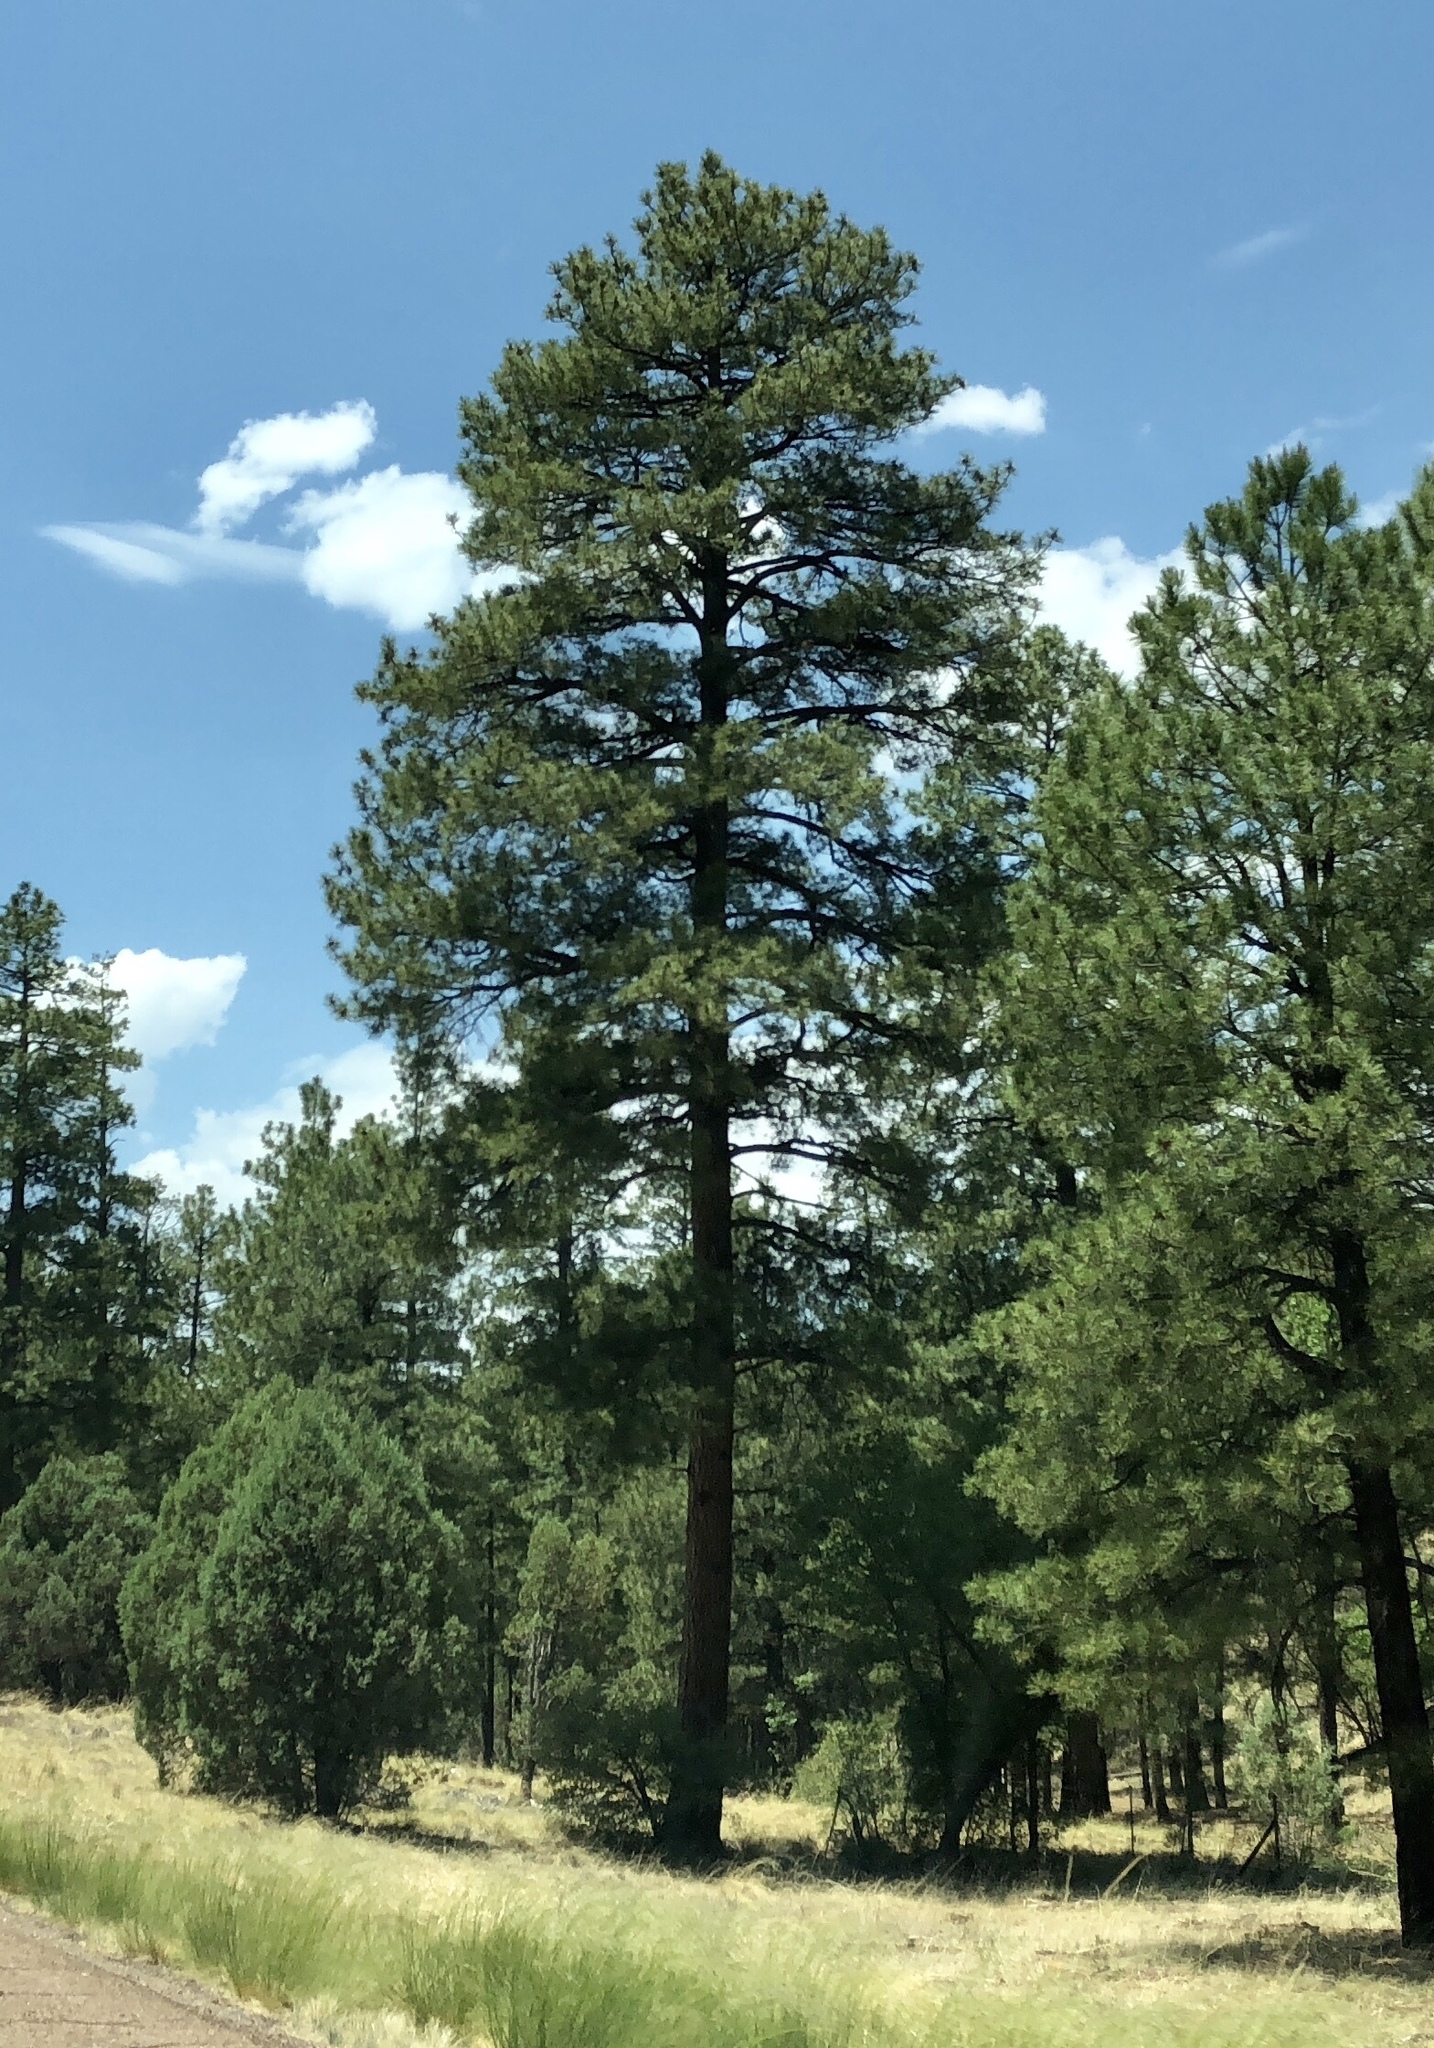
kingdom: Plantae
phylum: Tracheophyta
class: Pinopsida
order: Pinales
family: Pinaceae
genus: Pinus
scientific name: Pinus ponderosa
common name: Western yellow-pine
